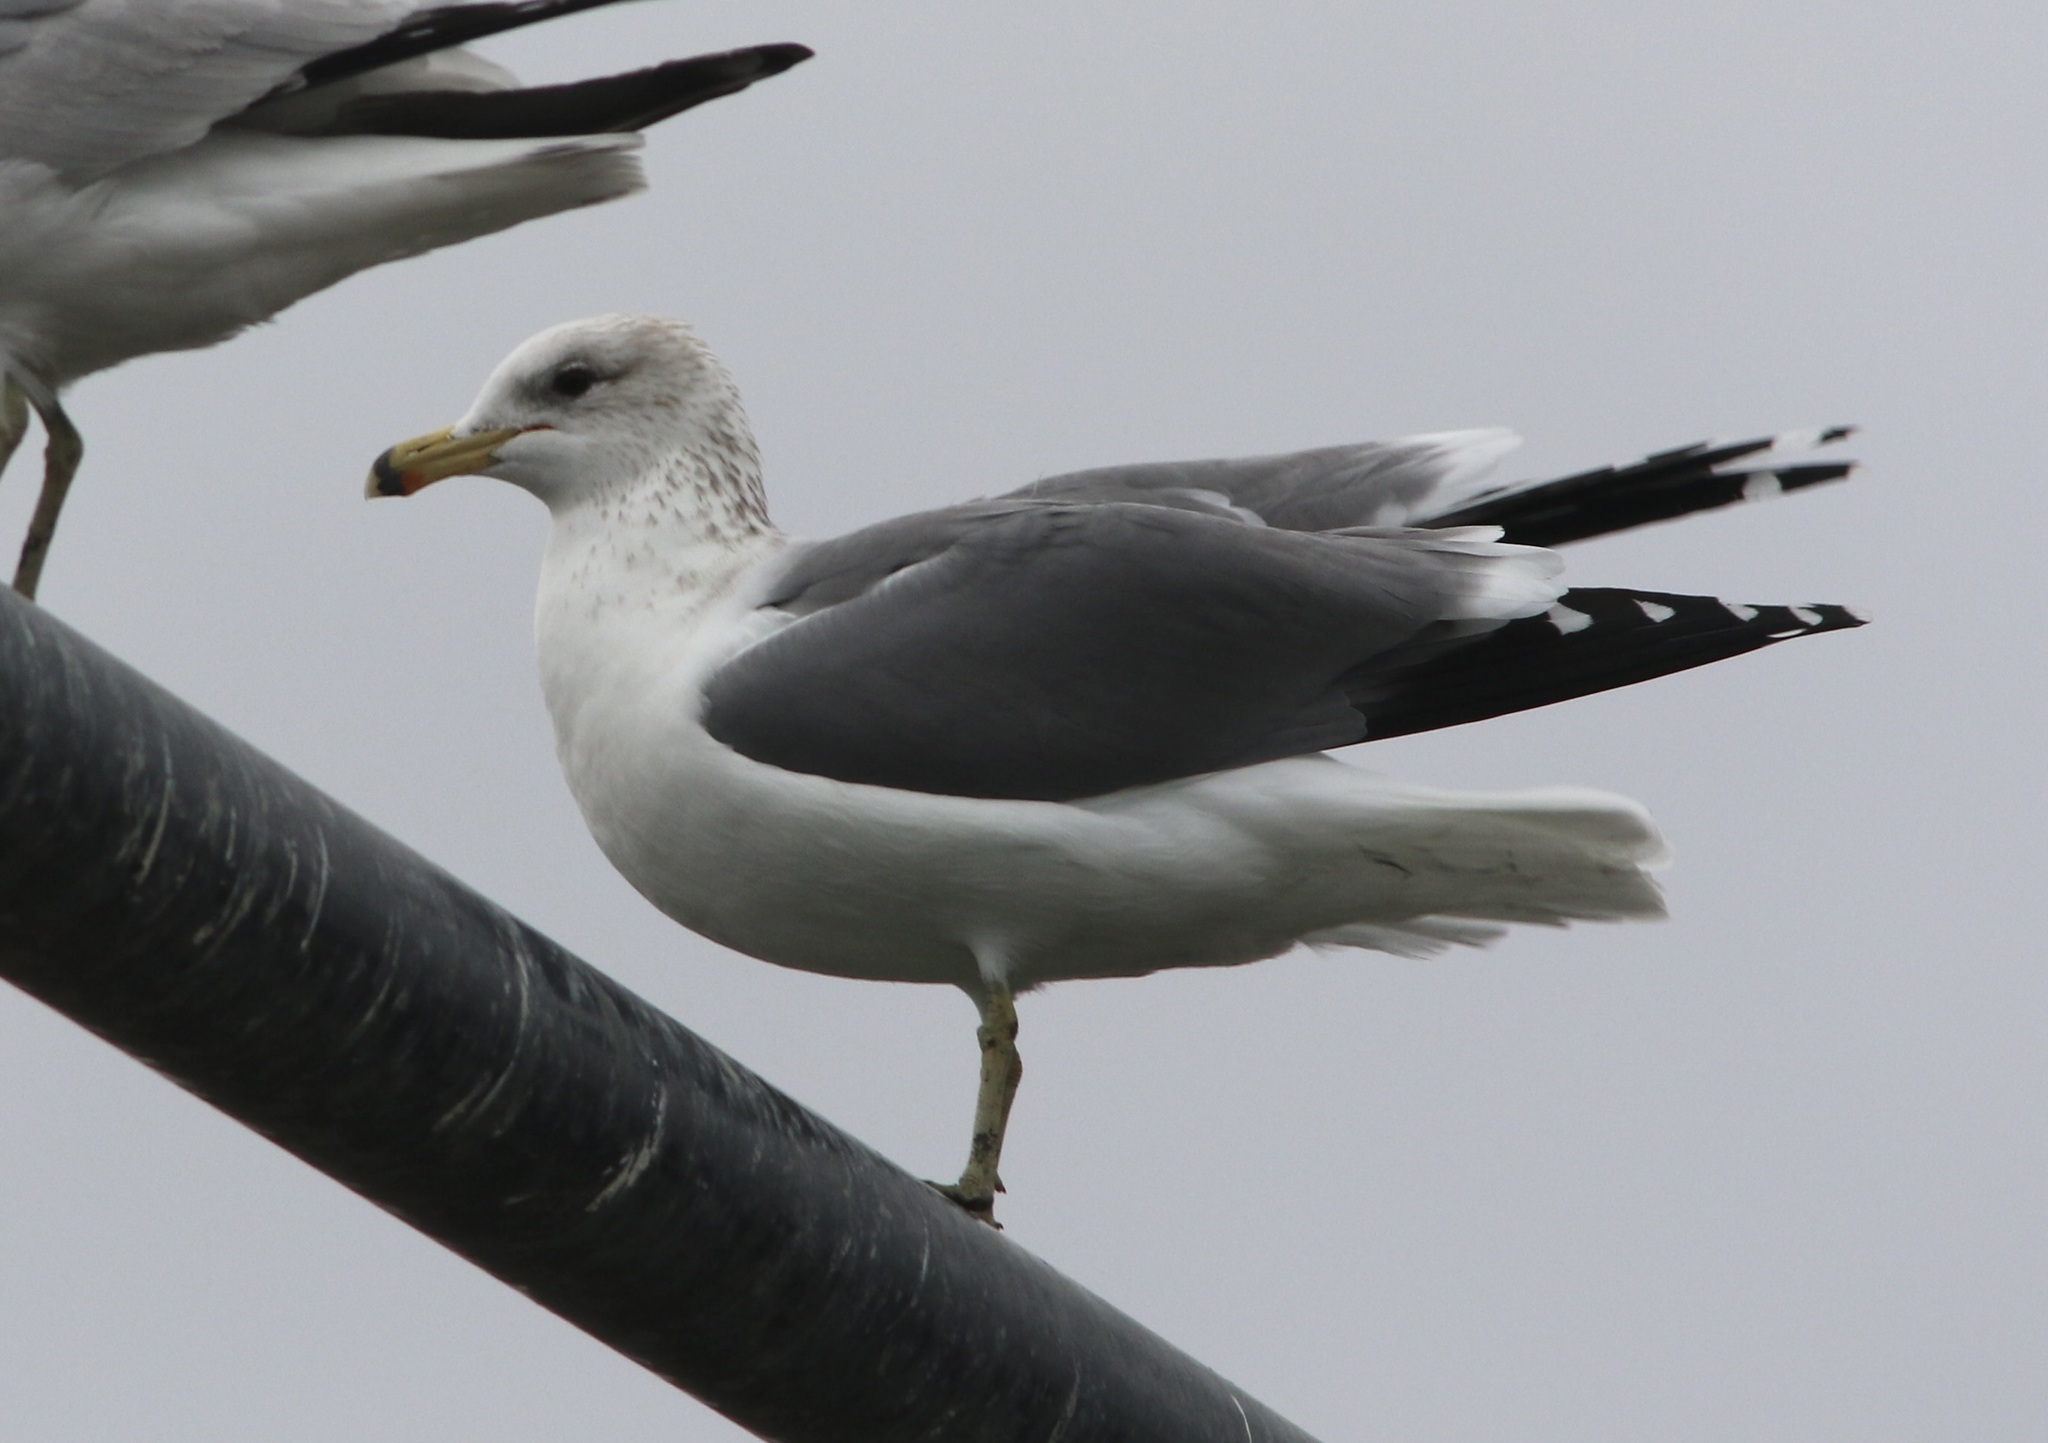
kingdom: Animalia
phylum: Chordata
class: Aves
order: Charadriiformes
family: Laridae
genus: Larus
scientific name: Larus californicus
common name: California gull
